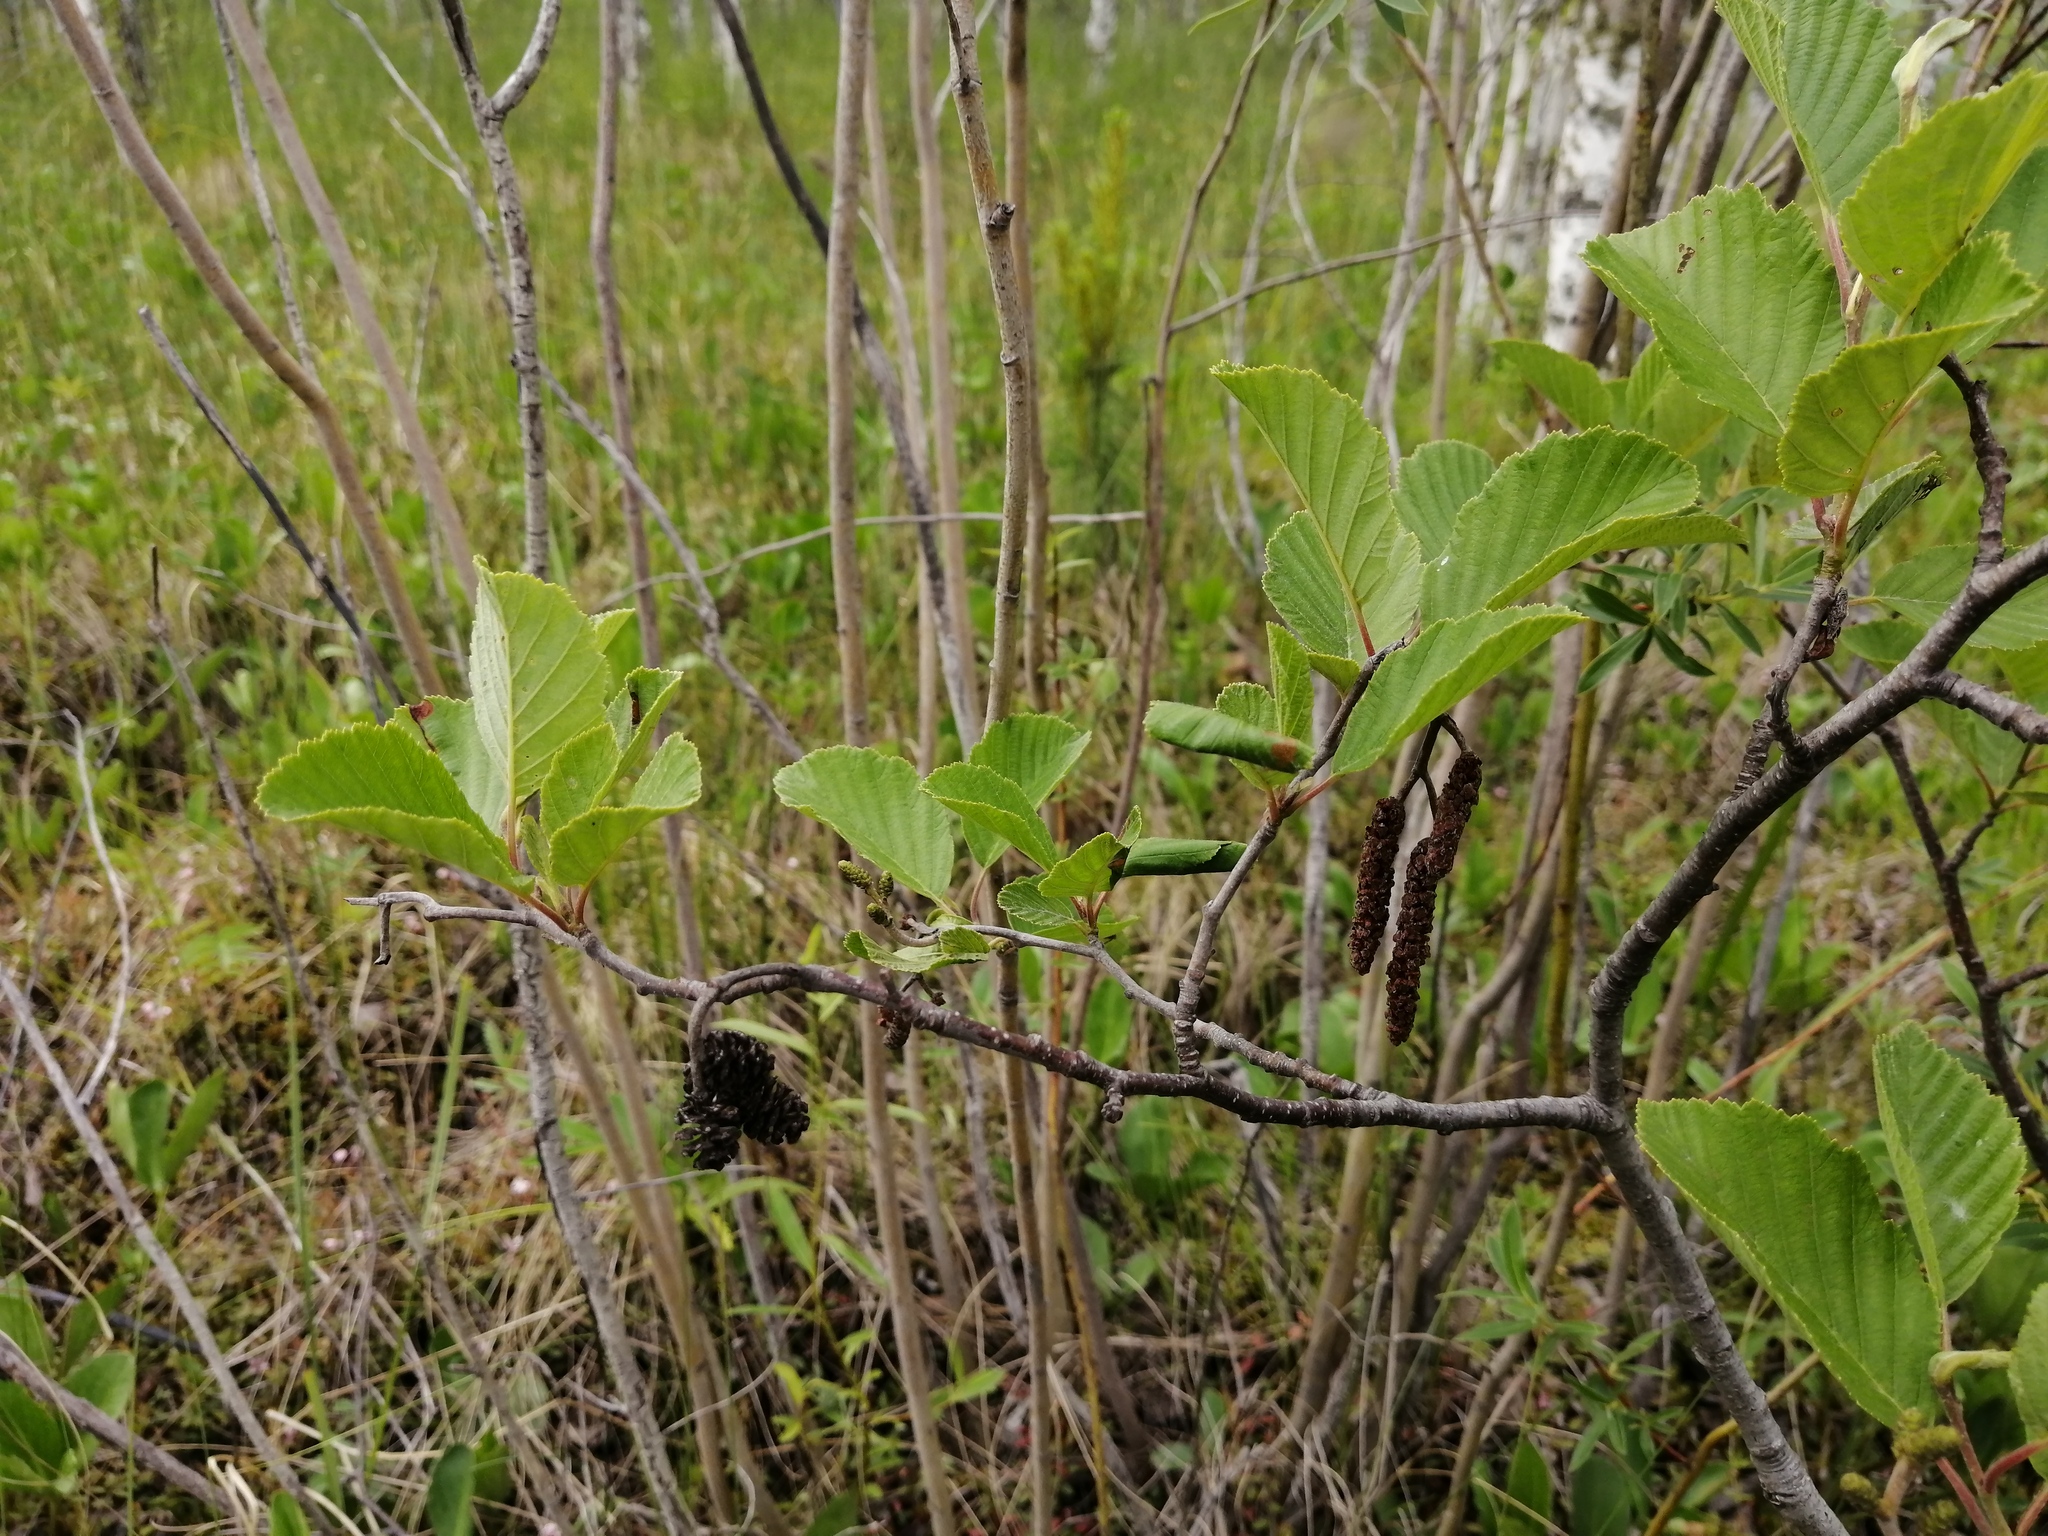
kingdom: Plantae
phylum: Tracheophyta
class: Magnoliopsida
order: Fagales
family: Betulaceae
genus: Alnus
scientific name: Alnus incana
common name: Grey alder
